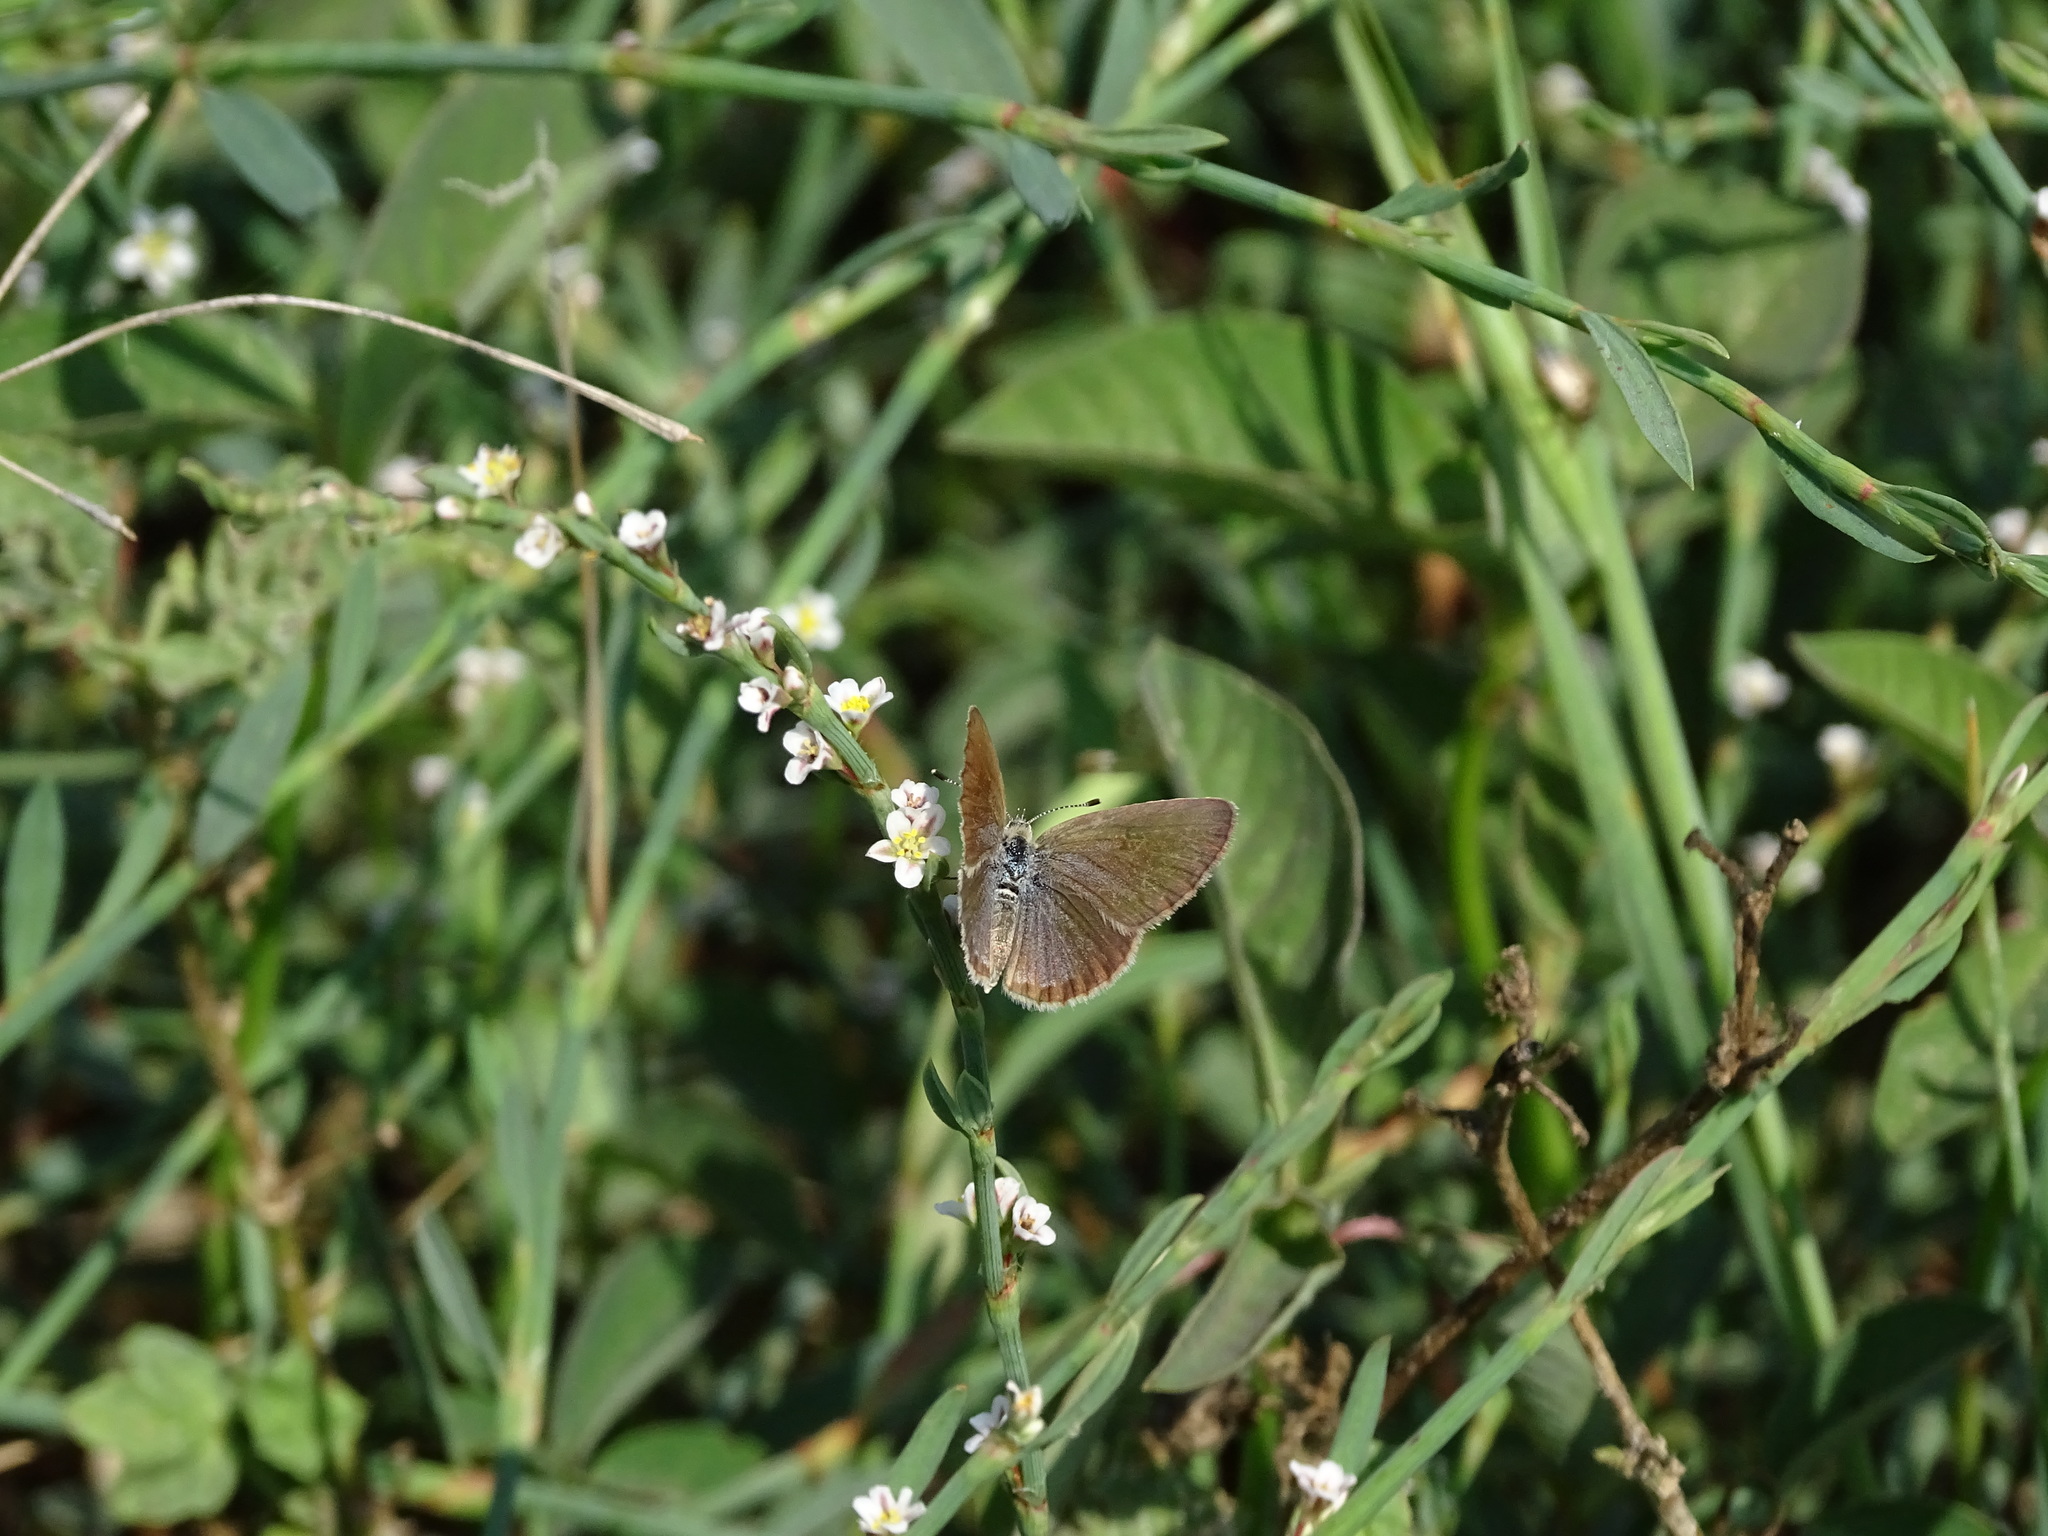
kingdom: Animalia
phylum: Arthropoda
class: Insecta
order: Lepidoptera
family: Lycaenidae
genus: Zizeeria
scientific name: Zizeeria karsandra
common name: Dark grass blue
